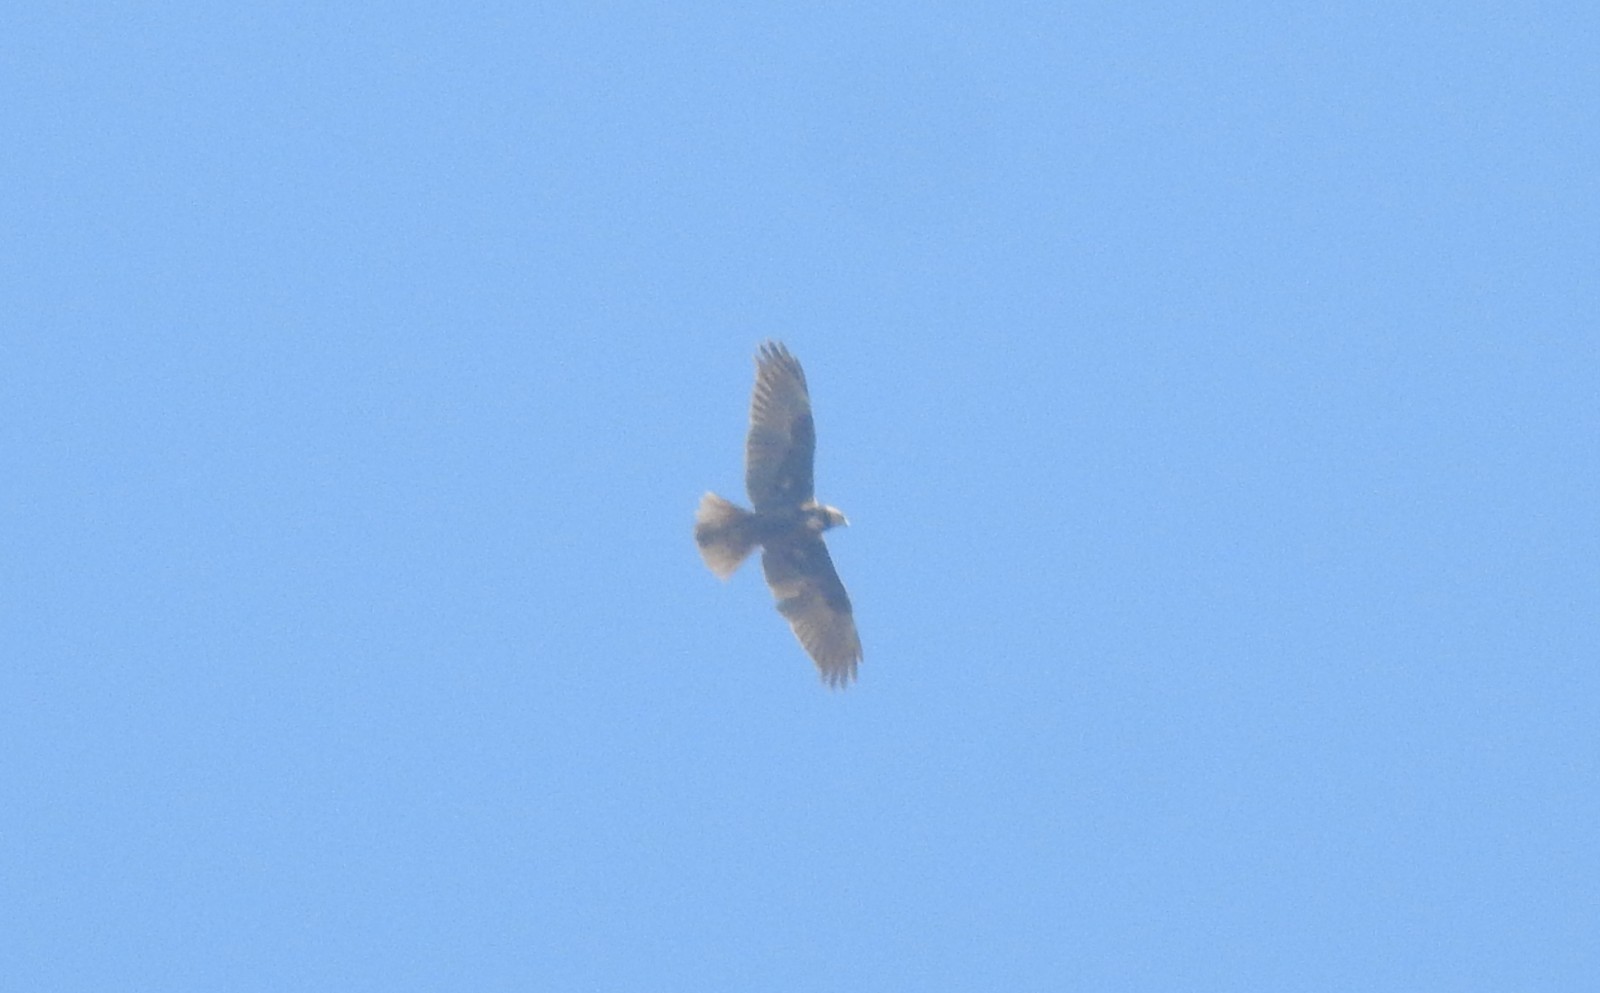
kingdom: Animalia
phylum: Chordata
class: Aves
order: Accipitriformes
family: Accipitridae
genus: Circus
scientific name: Circus aeruginosus
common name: Western marsh harrier
